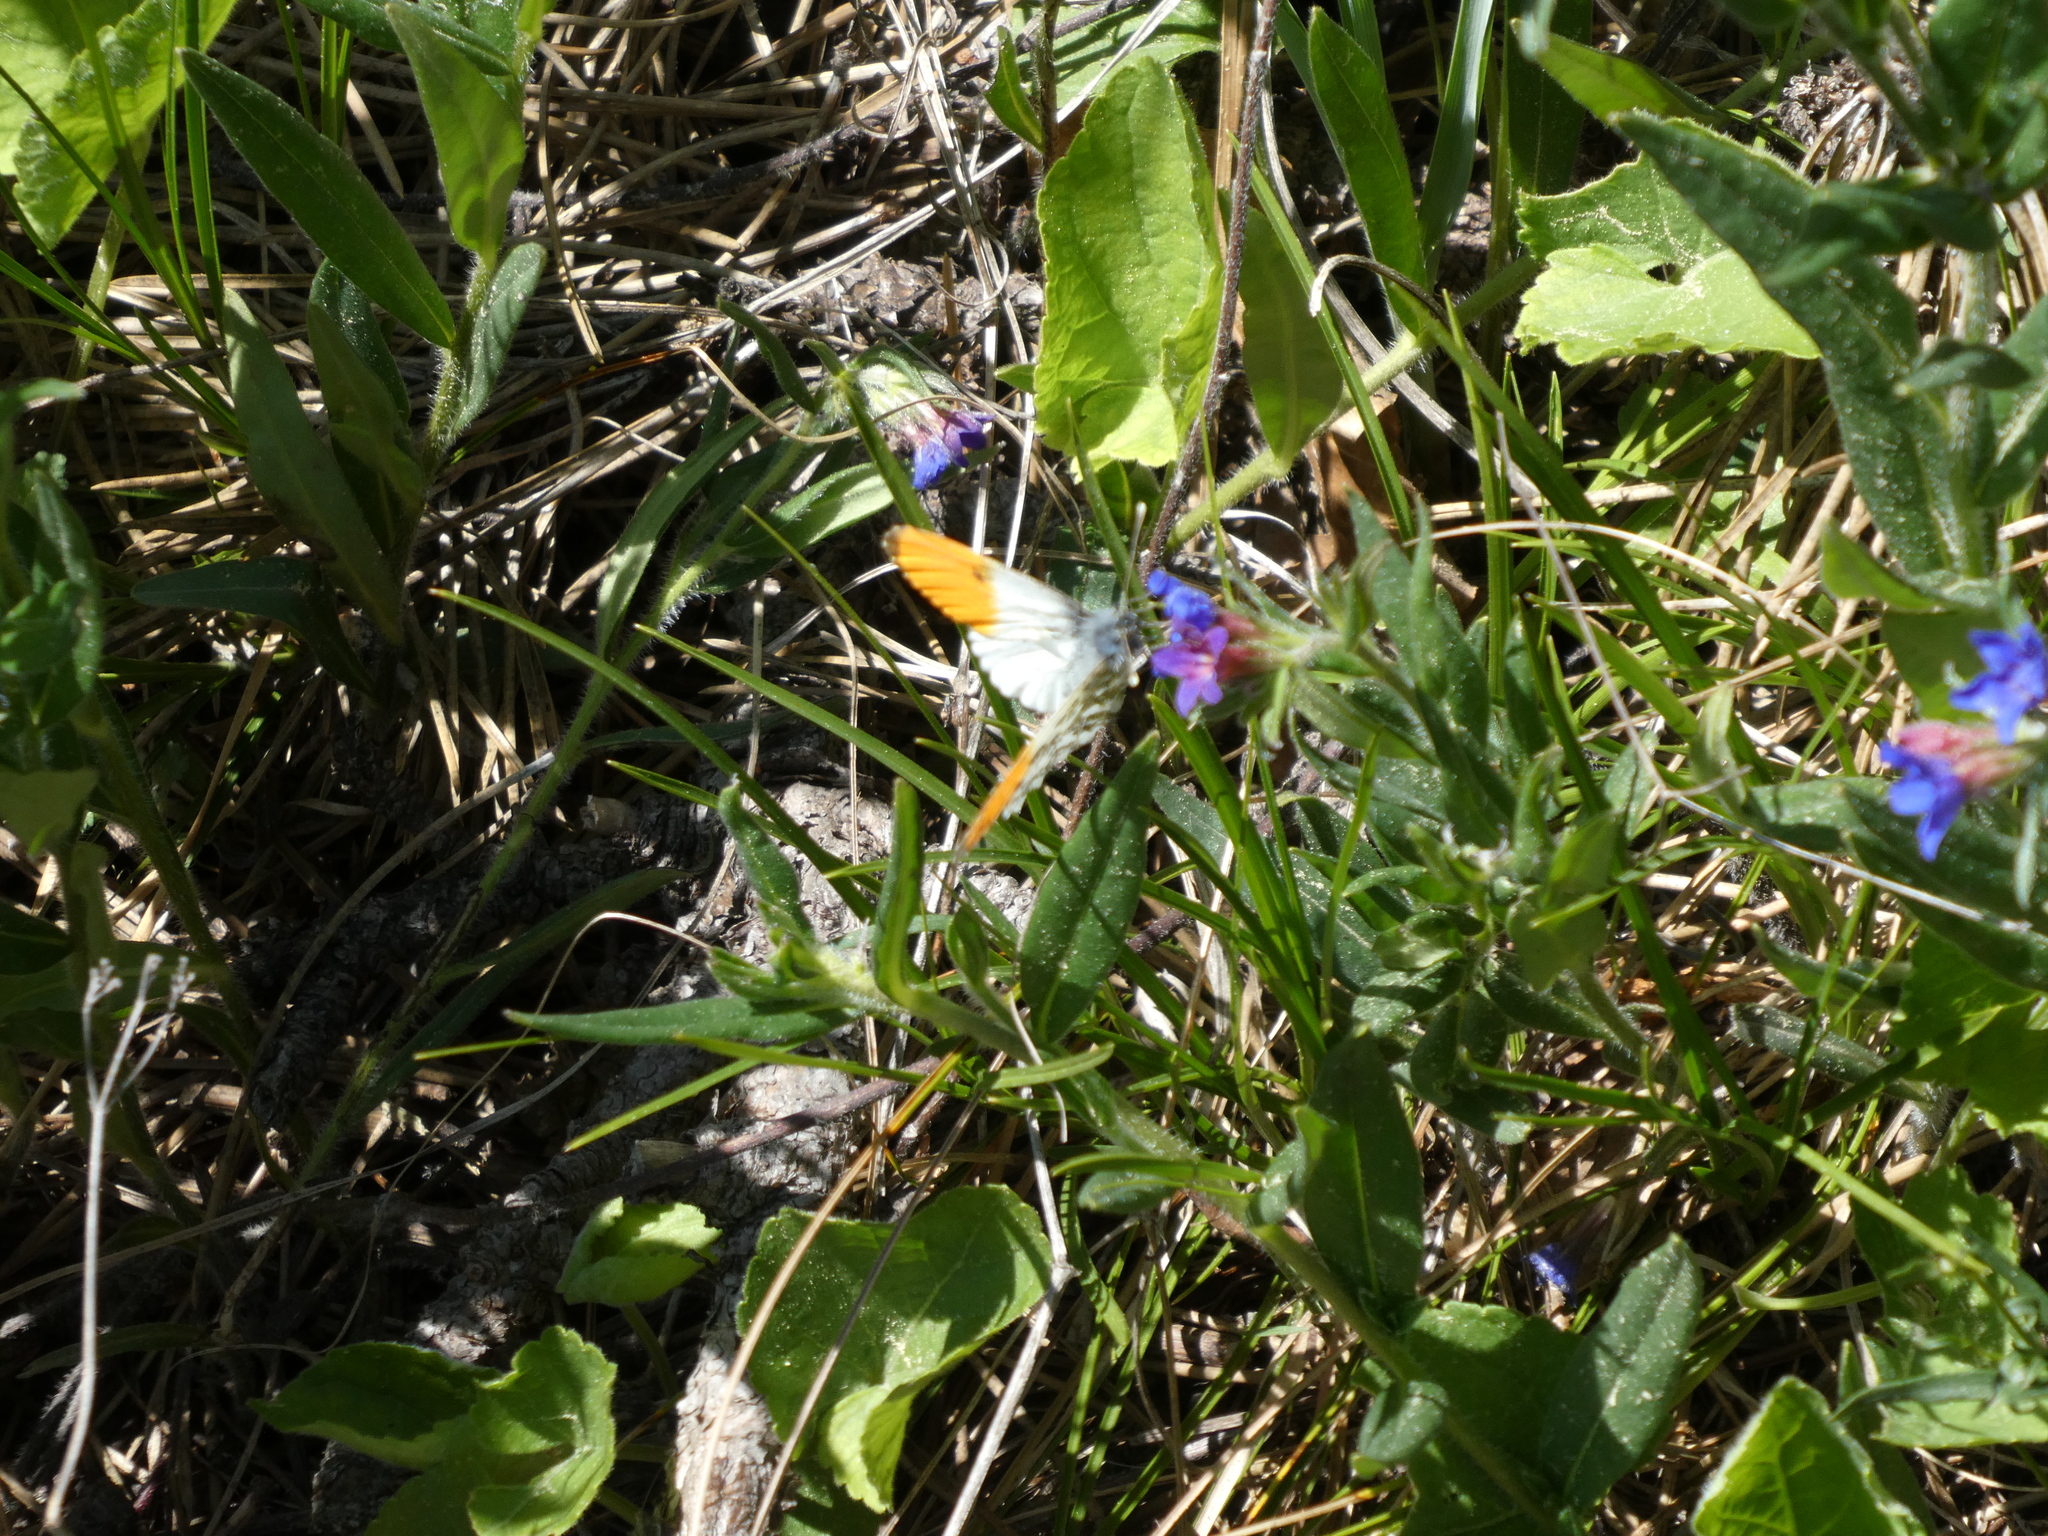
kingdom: Animalia
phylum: Arthropoda
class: Insecta
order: Lepidoptera
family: Pieridae
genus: Anthocharis
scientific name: Anthocharis cardamines
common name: Orange-tip
